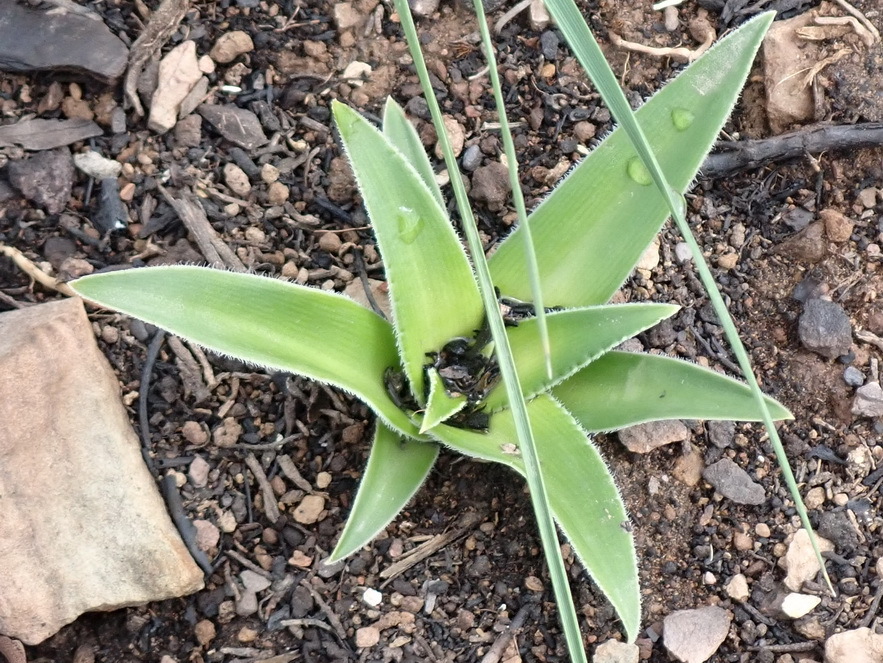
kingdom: Plantae
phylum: Tracheophyta
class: Liliopsida
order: Asparagales
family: Asparagaceae
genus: Chlorophytum
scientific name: Chlorophytum crispum
